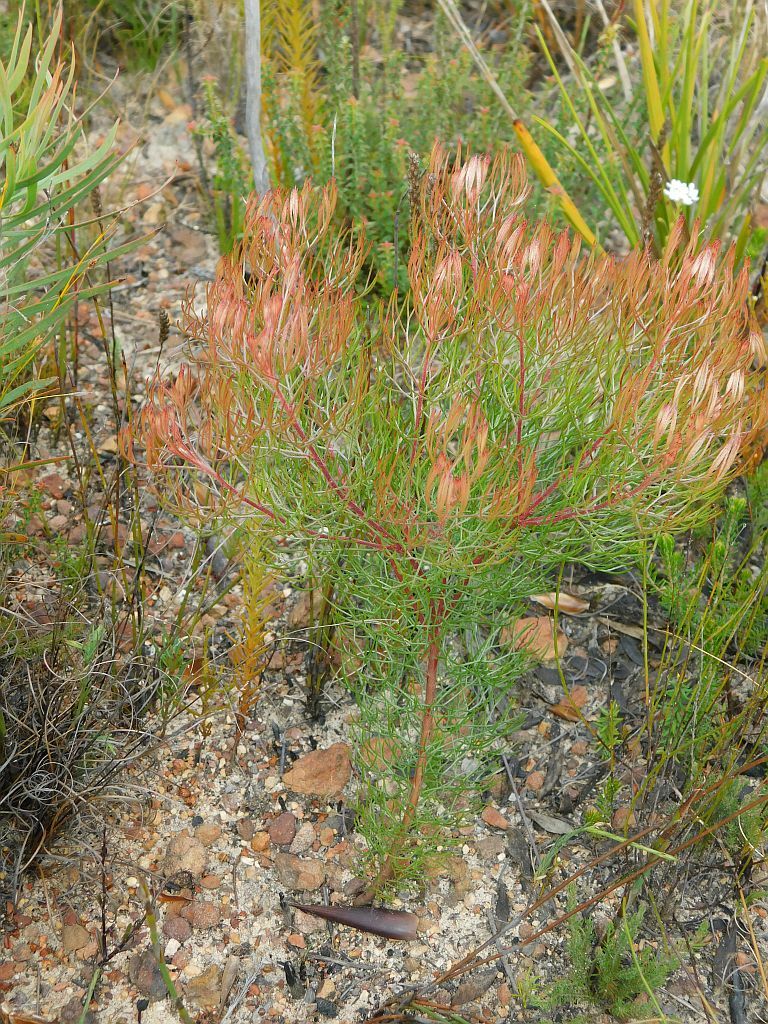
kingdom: Plantae
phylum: Tracheophyta
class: Magnoliopsida
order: Proteales
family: Proteaceae
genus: Serruria
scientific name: Serruria fasciflora
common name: Common pin spiderhead
